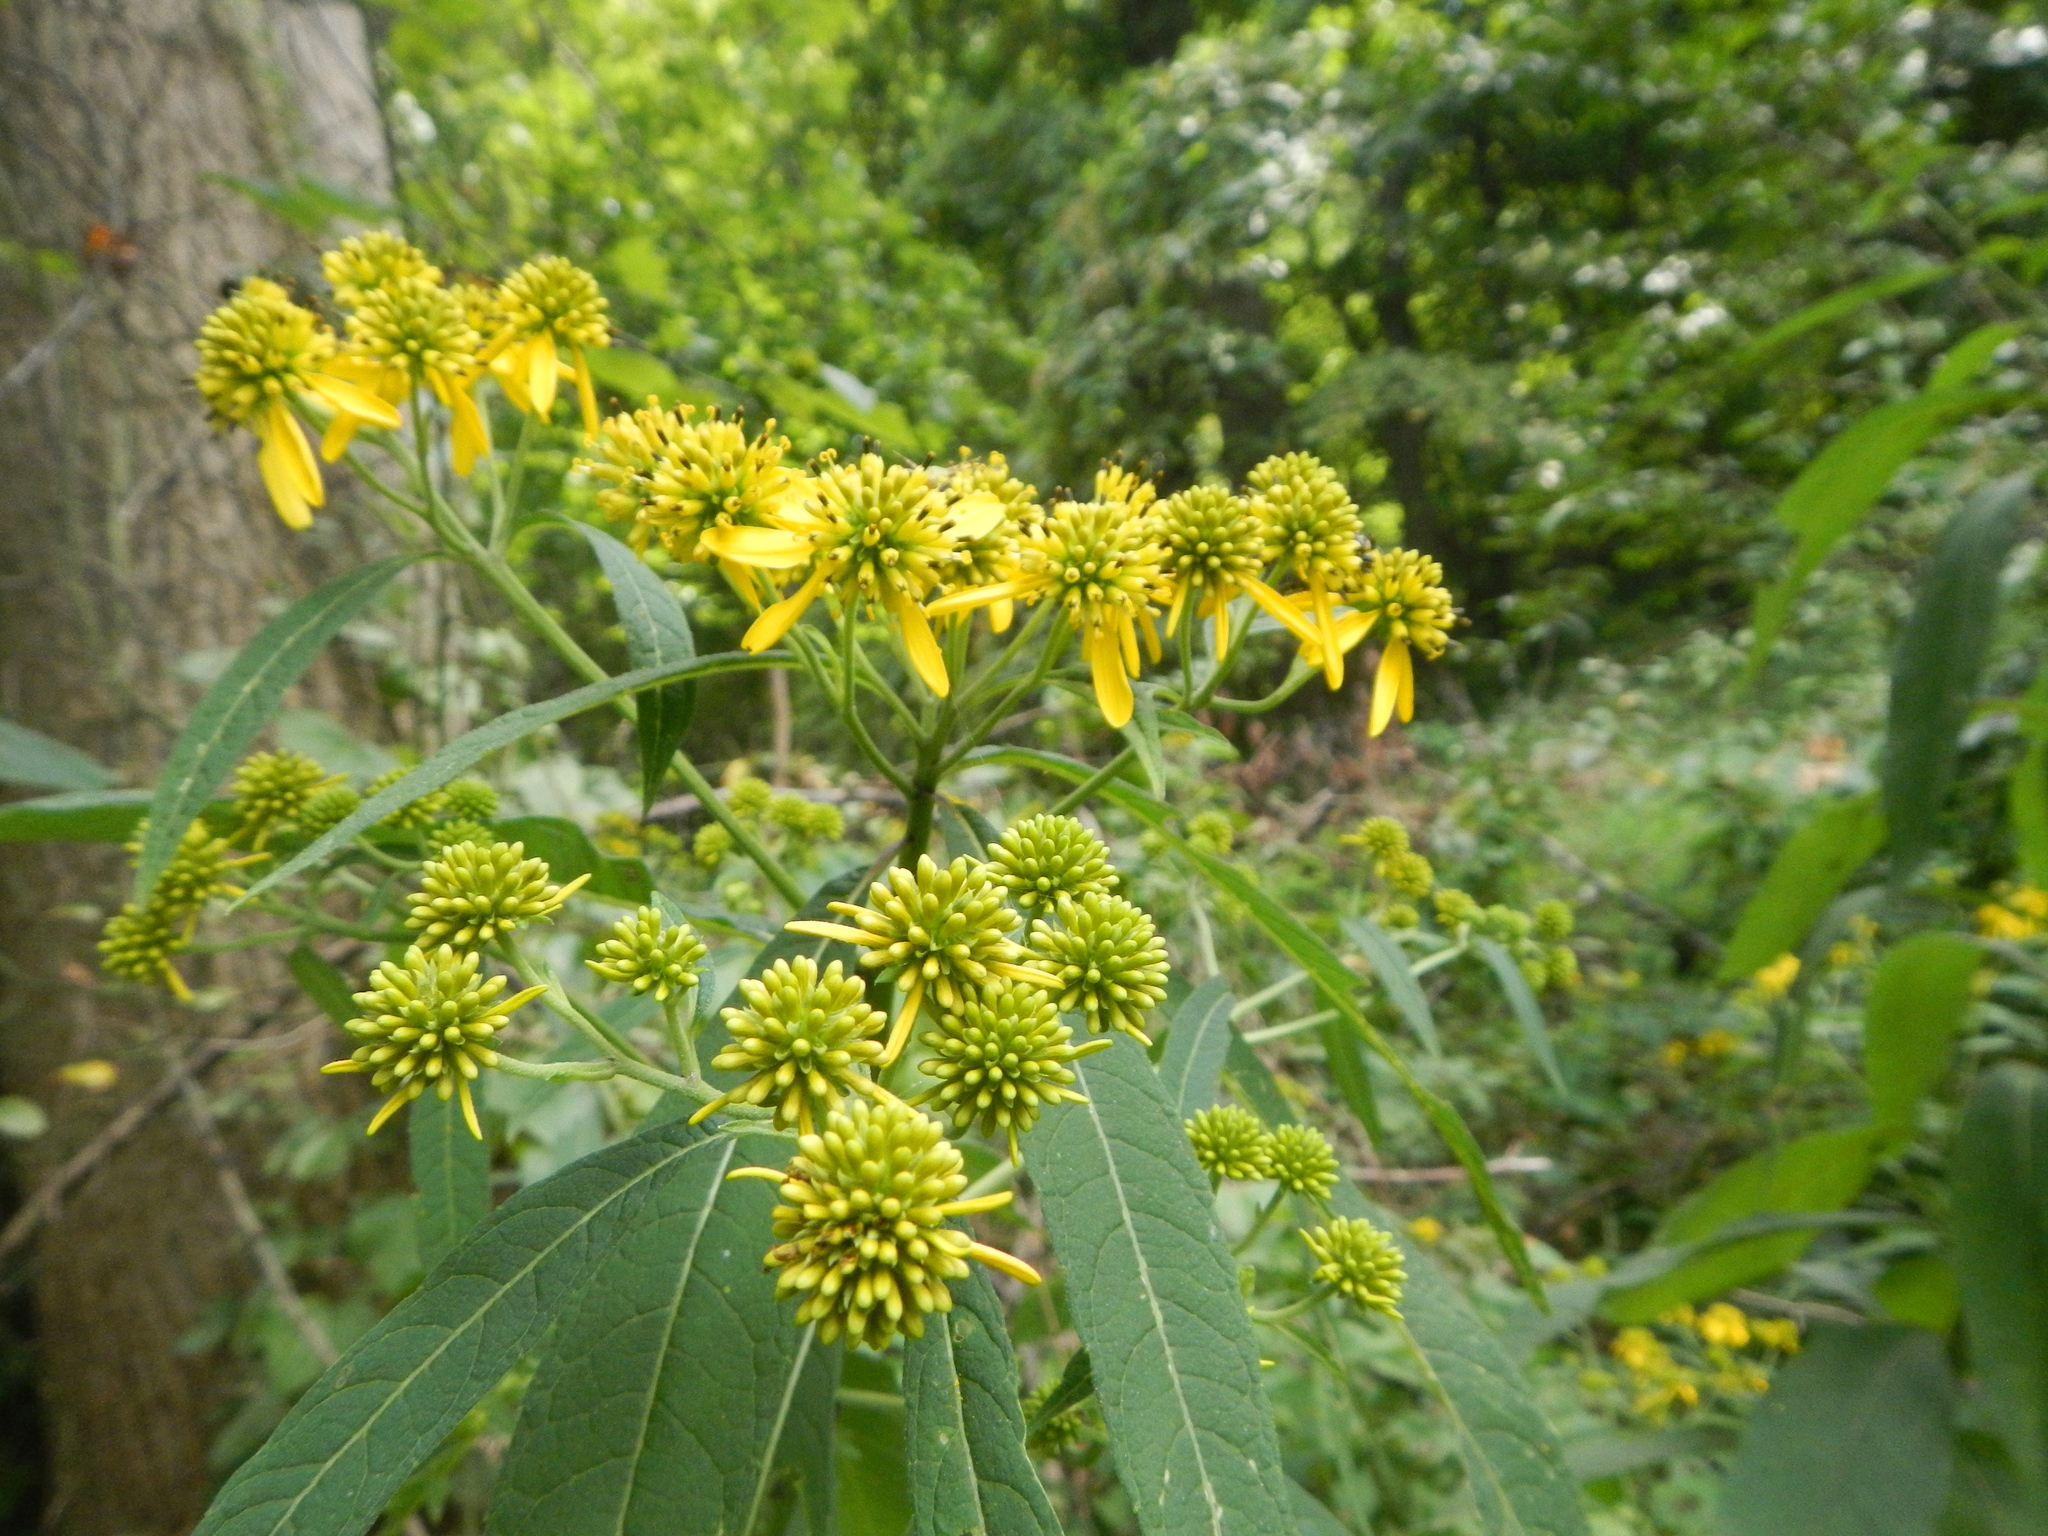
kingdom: Plantae
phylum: Tracheophyta
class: Magnoliopsida
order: Asterales
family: Asteraceae
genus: Verbesina
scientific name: Verbesina alternifolia
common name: Wingstem
